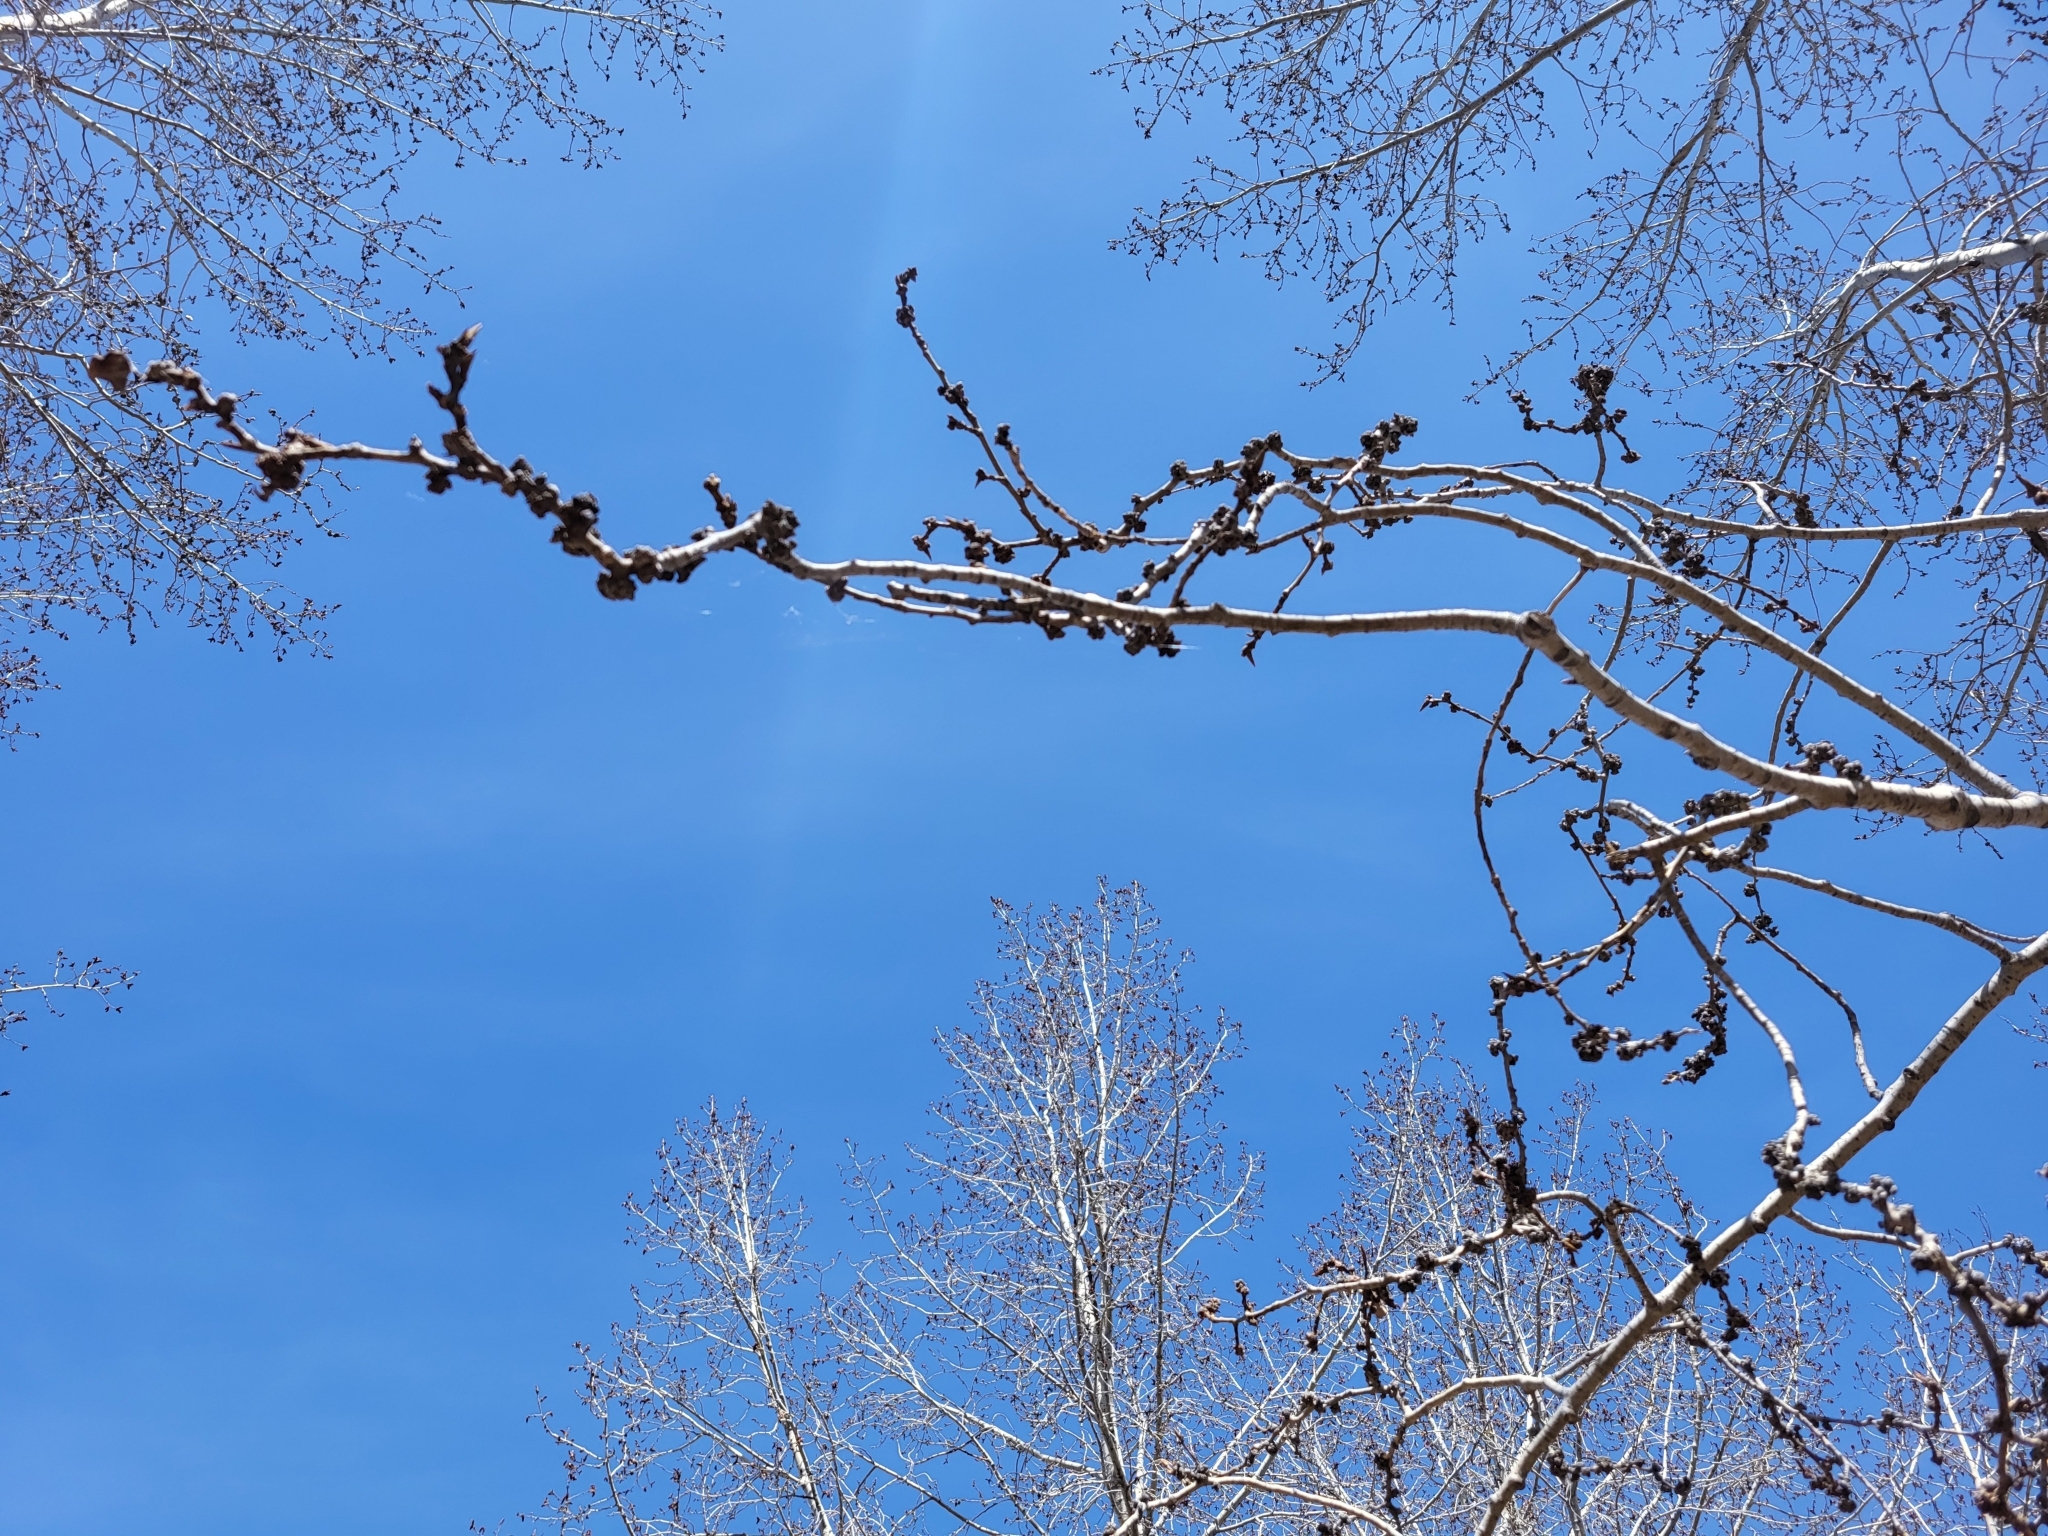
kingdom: Animalia
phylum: Arthropoda
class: Arachnida
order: Trombidiformes
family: Eriophyidae
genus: Aceria
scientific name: Aceria
